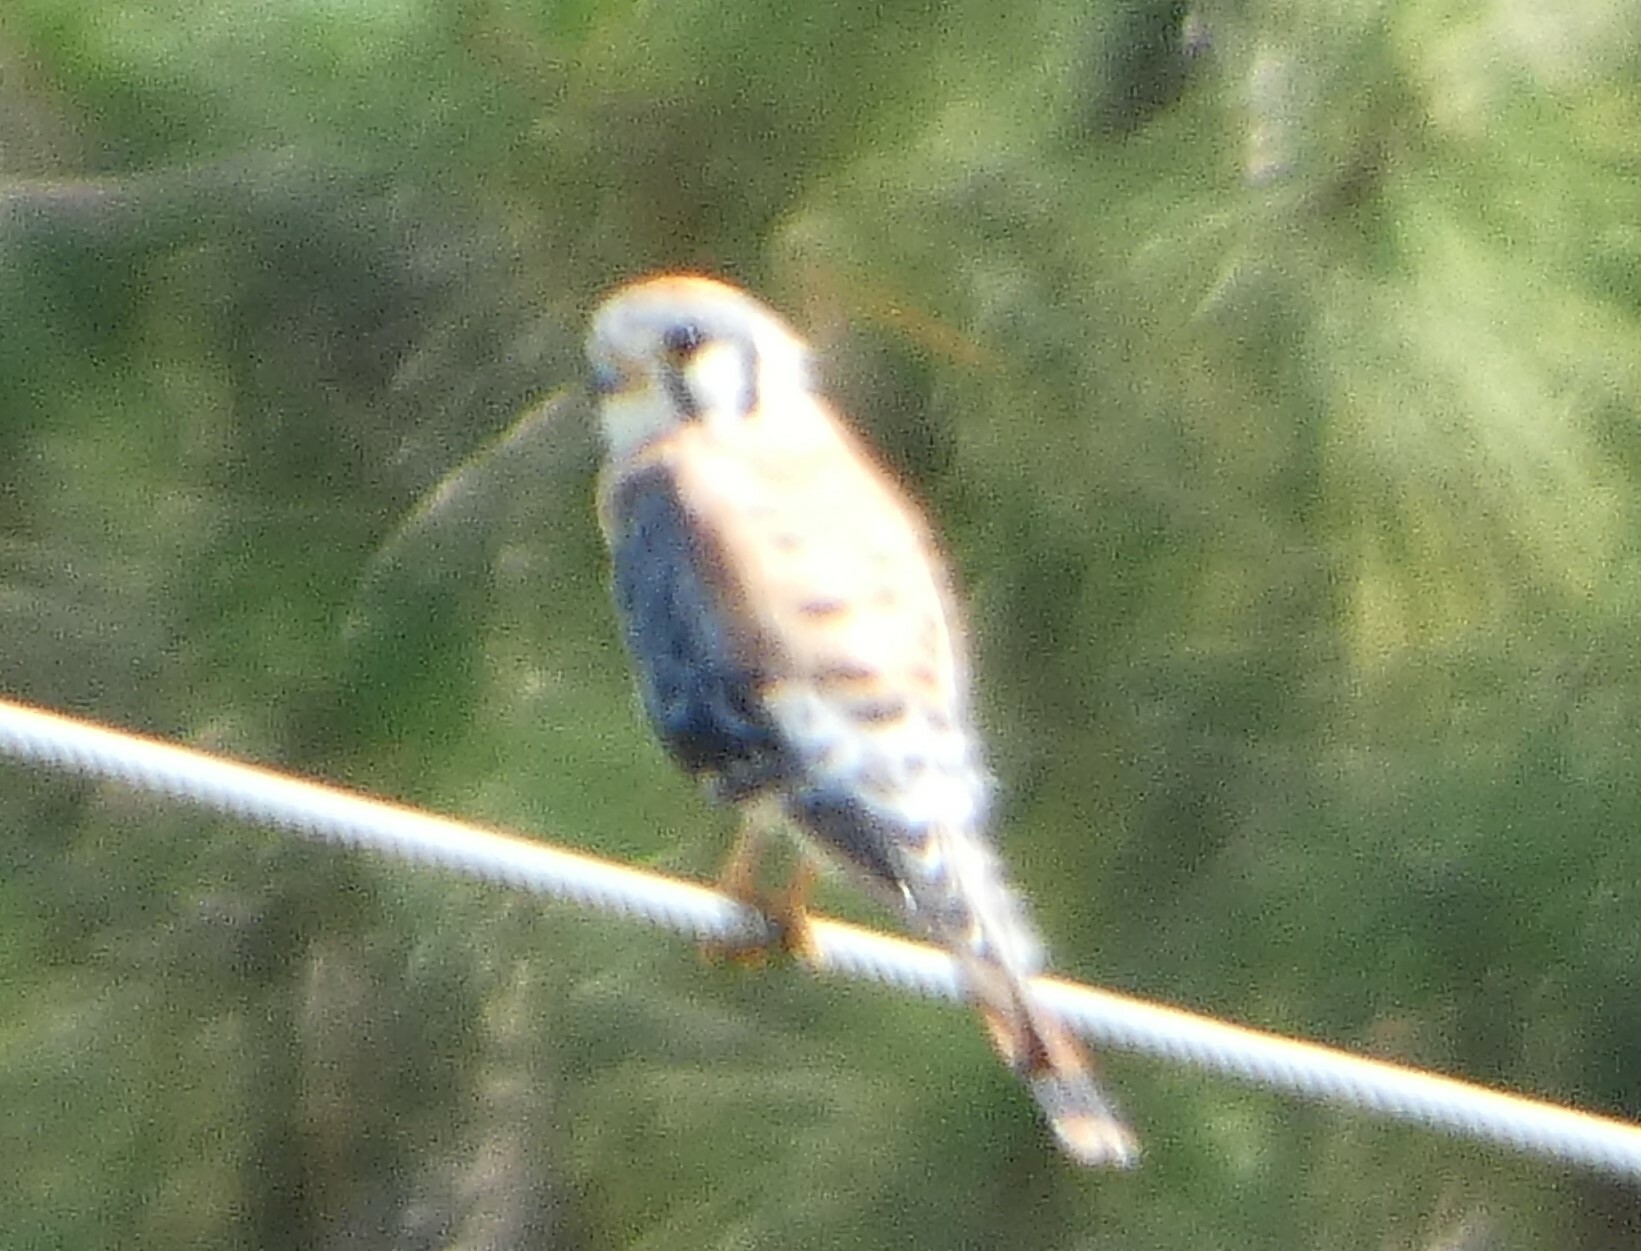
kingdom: Animalia
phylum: Chordata
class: Aves
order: Falconiformes
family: Falconidae
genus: Falco
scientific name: Falco sparverius
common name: American kestrel
